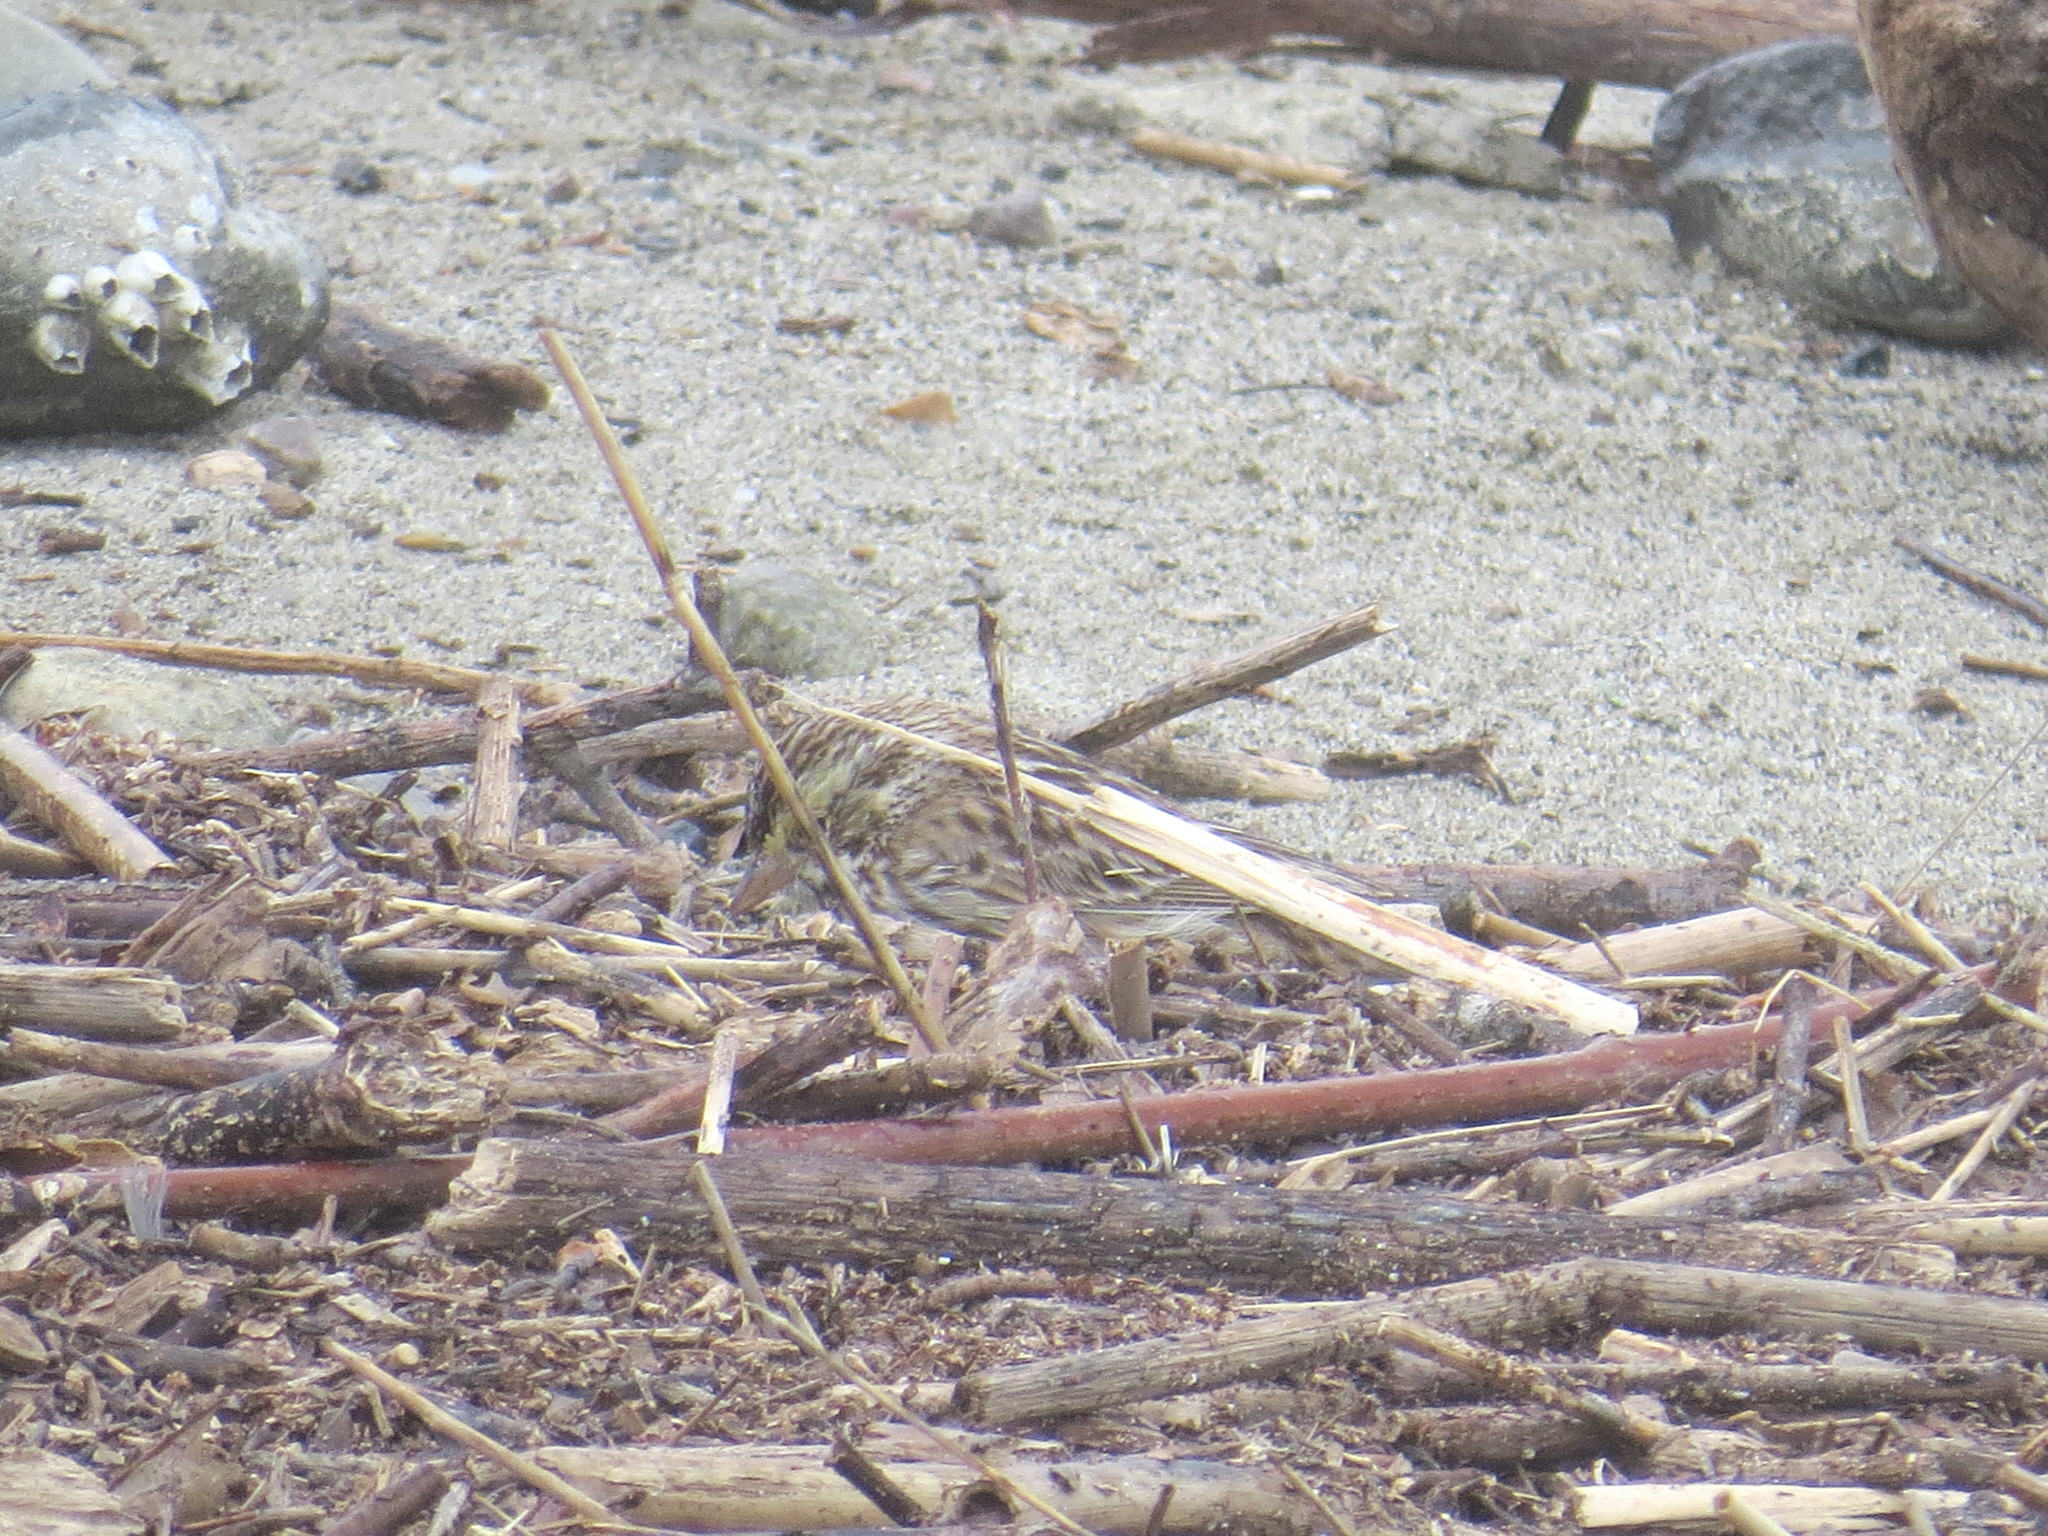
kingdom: Animalia
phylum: Chordata
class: Aves
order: Passeriformes
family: Passerellidae
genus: Passerculus
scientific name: Passerculus sandwichensis
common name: Savannah sparrow
